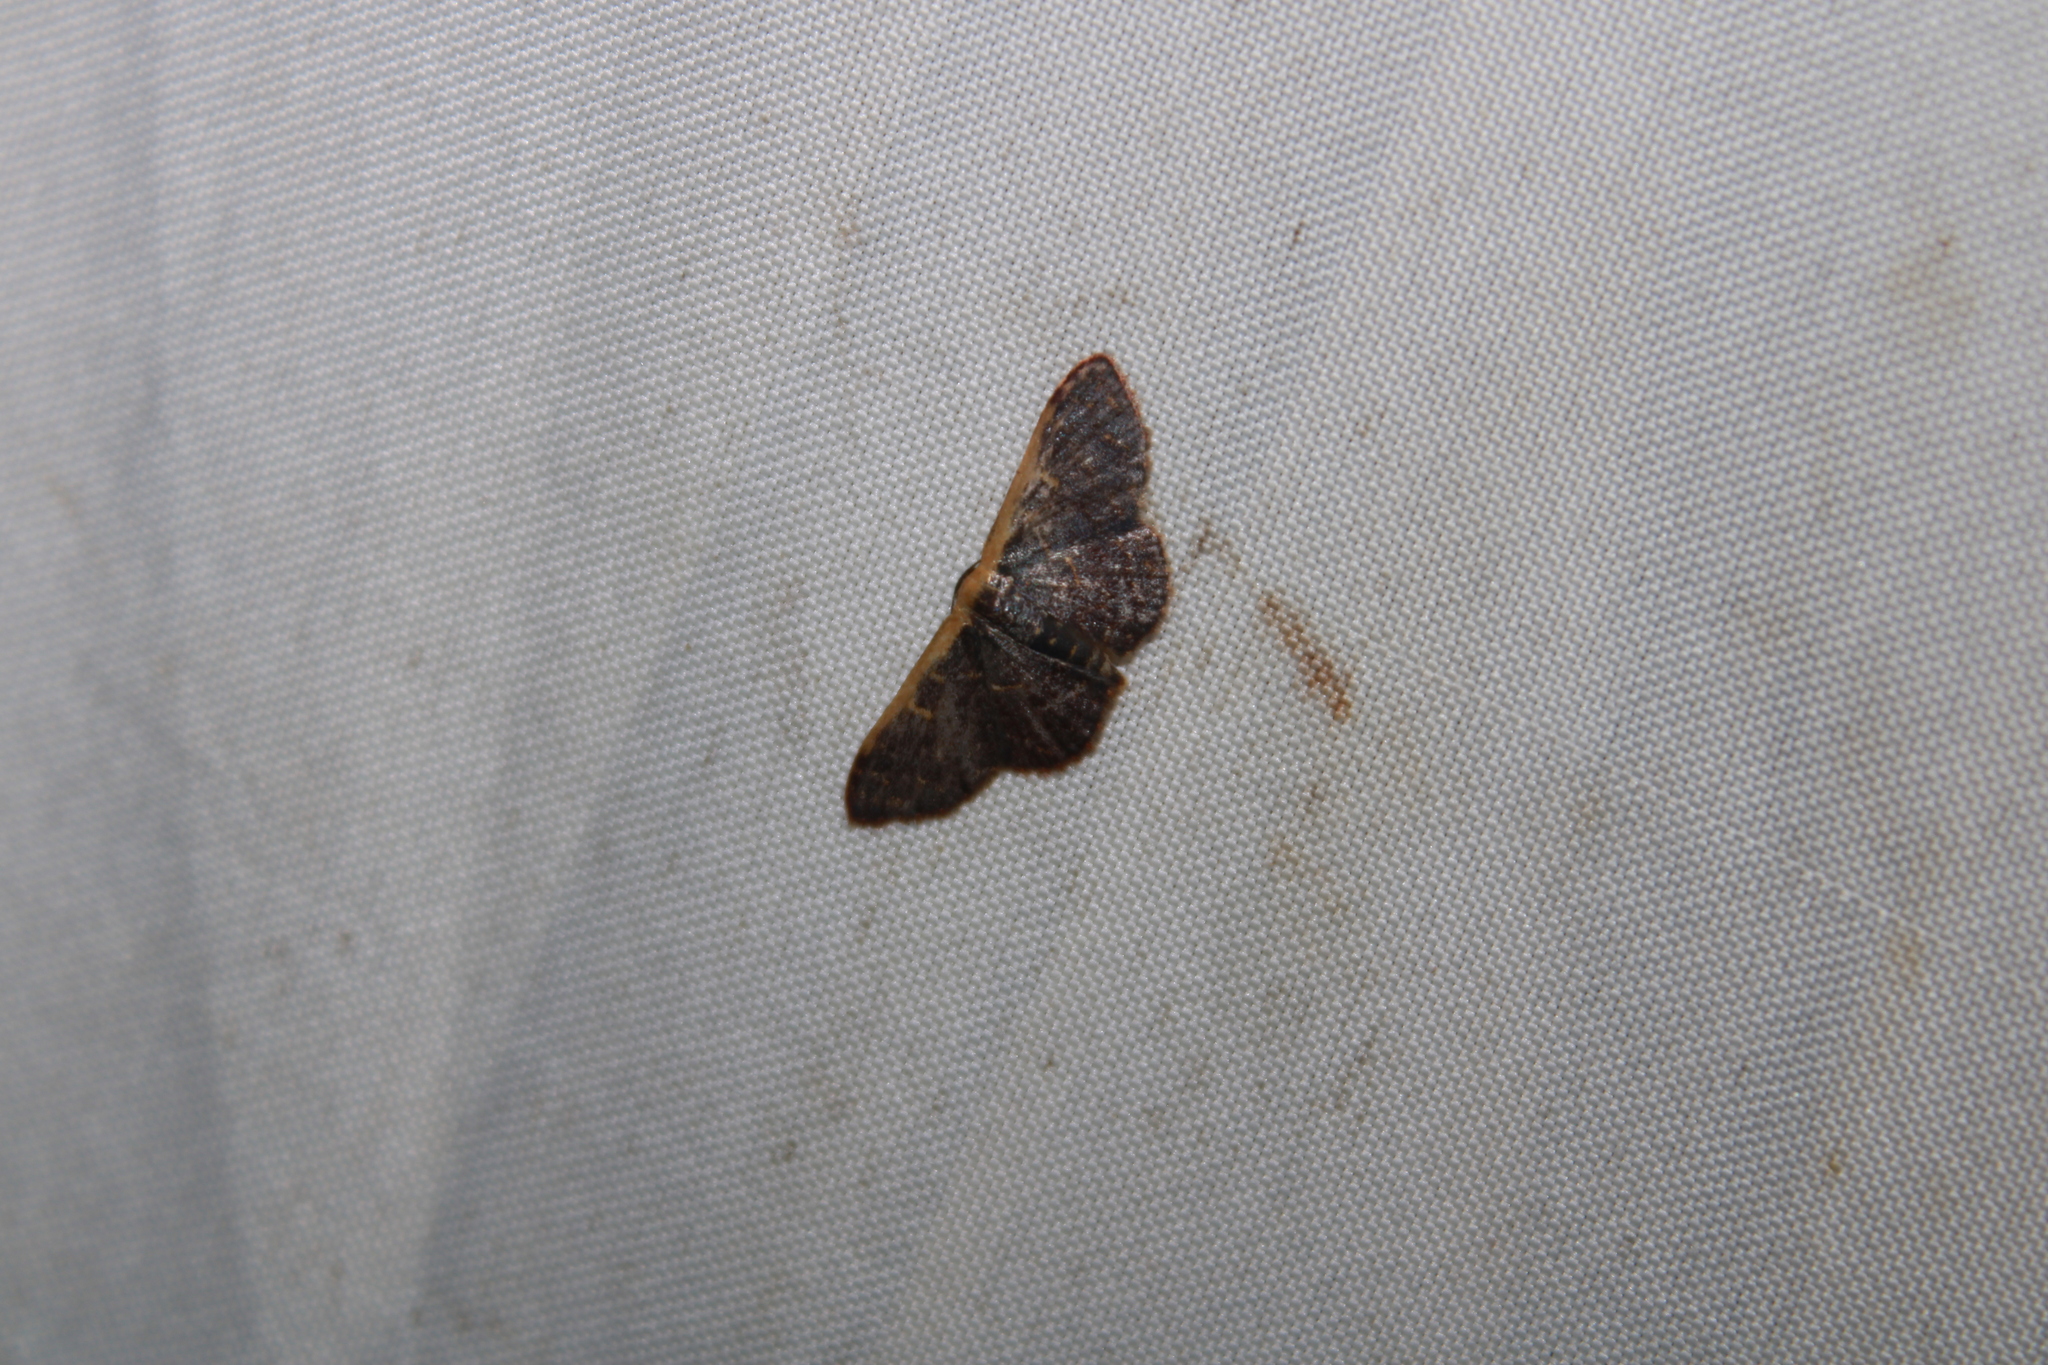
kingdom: Animalia
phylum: Arthropoda
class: Insecta
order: Lepidoptera
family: Geometridae
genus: Leptostales
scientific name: Leptostales crossii
